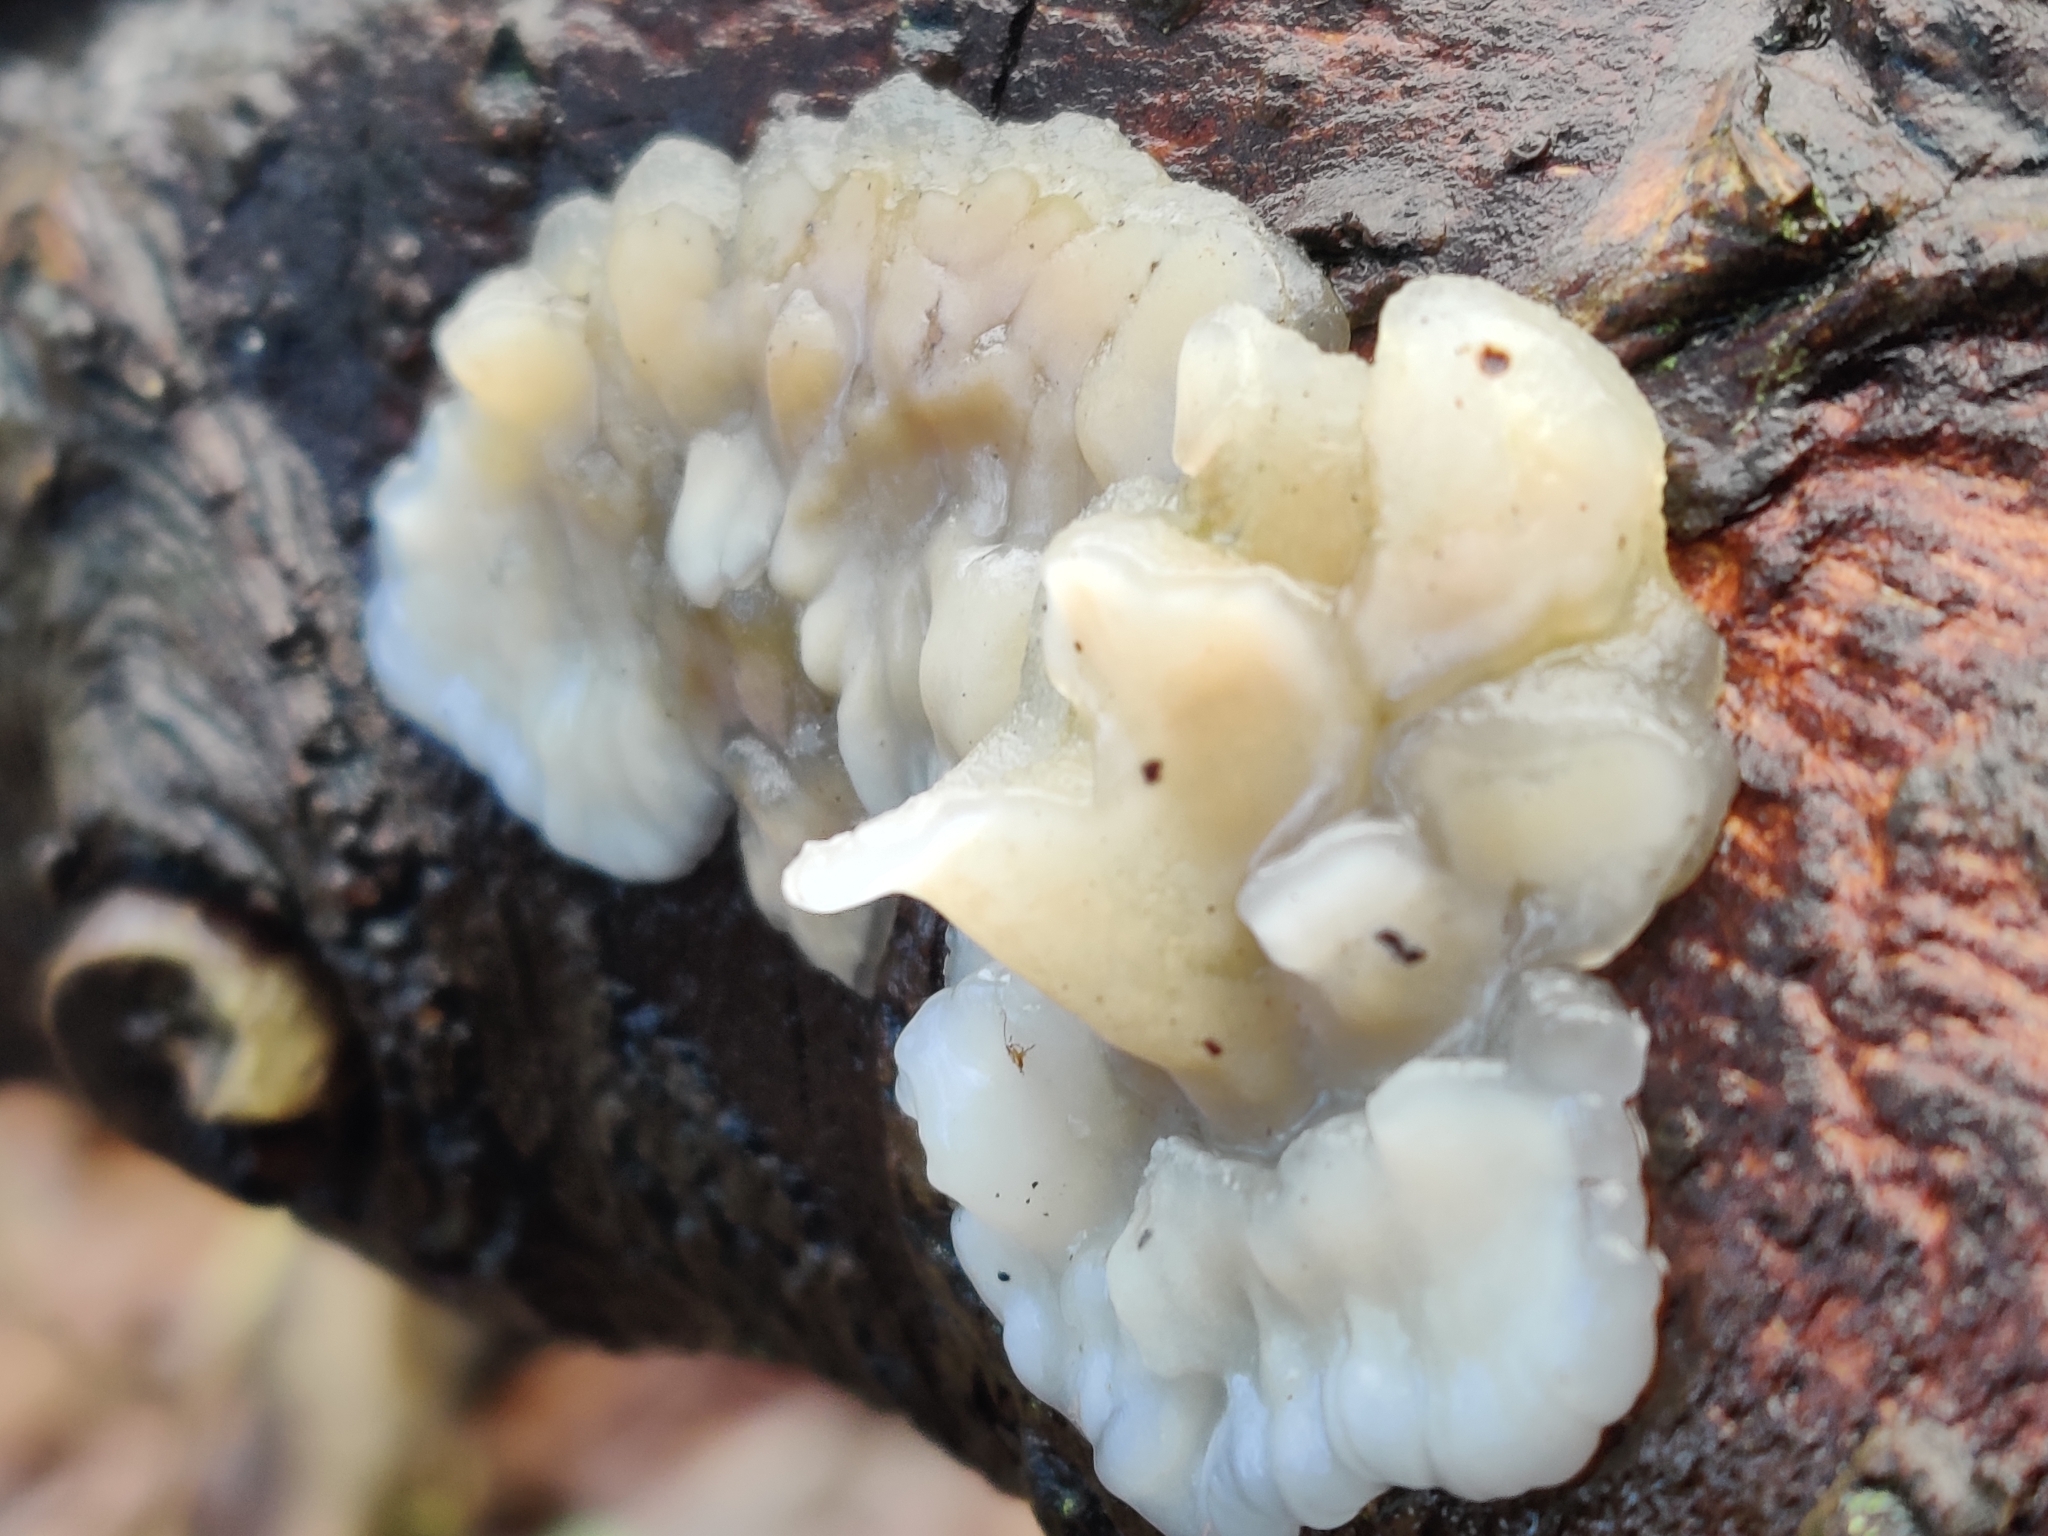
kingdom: Fungi
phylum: Basidiomycota
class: Agaricomycetes
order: Auriculariales
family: Auriculariaceae
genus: Exidia
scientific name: Exidia thuretiana
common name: White brain
